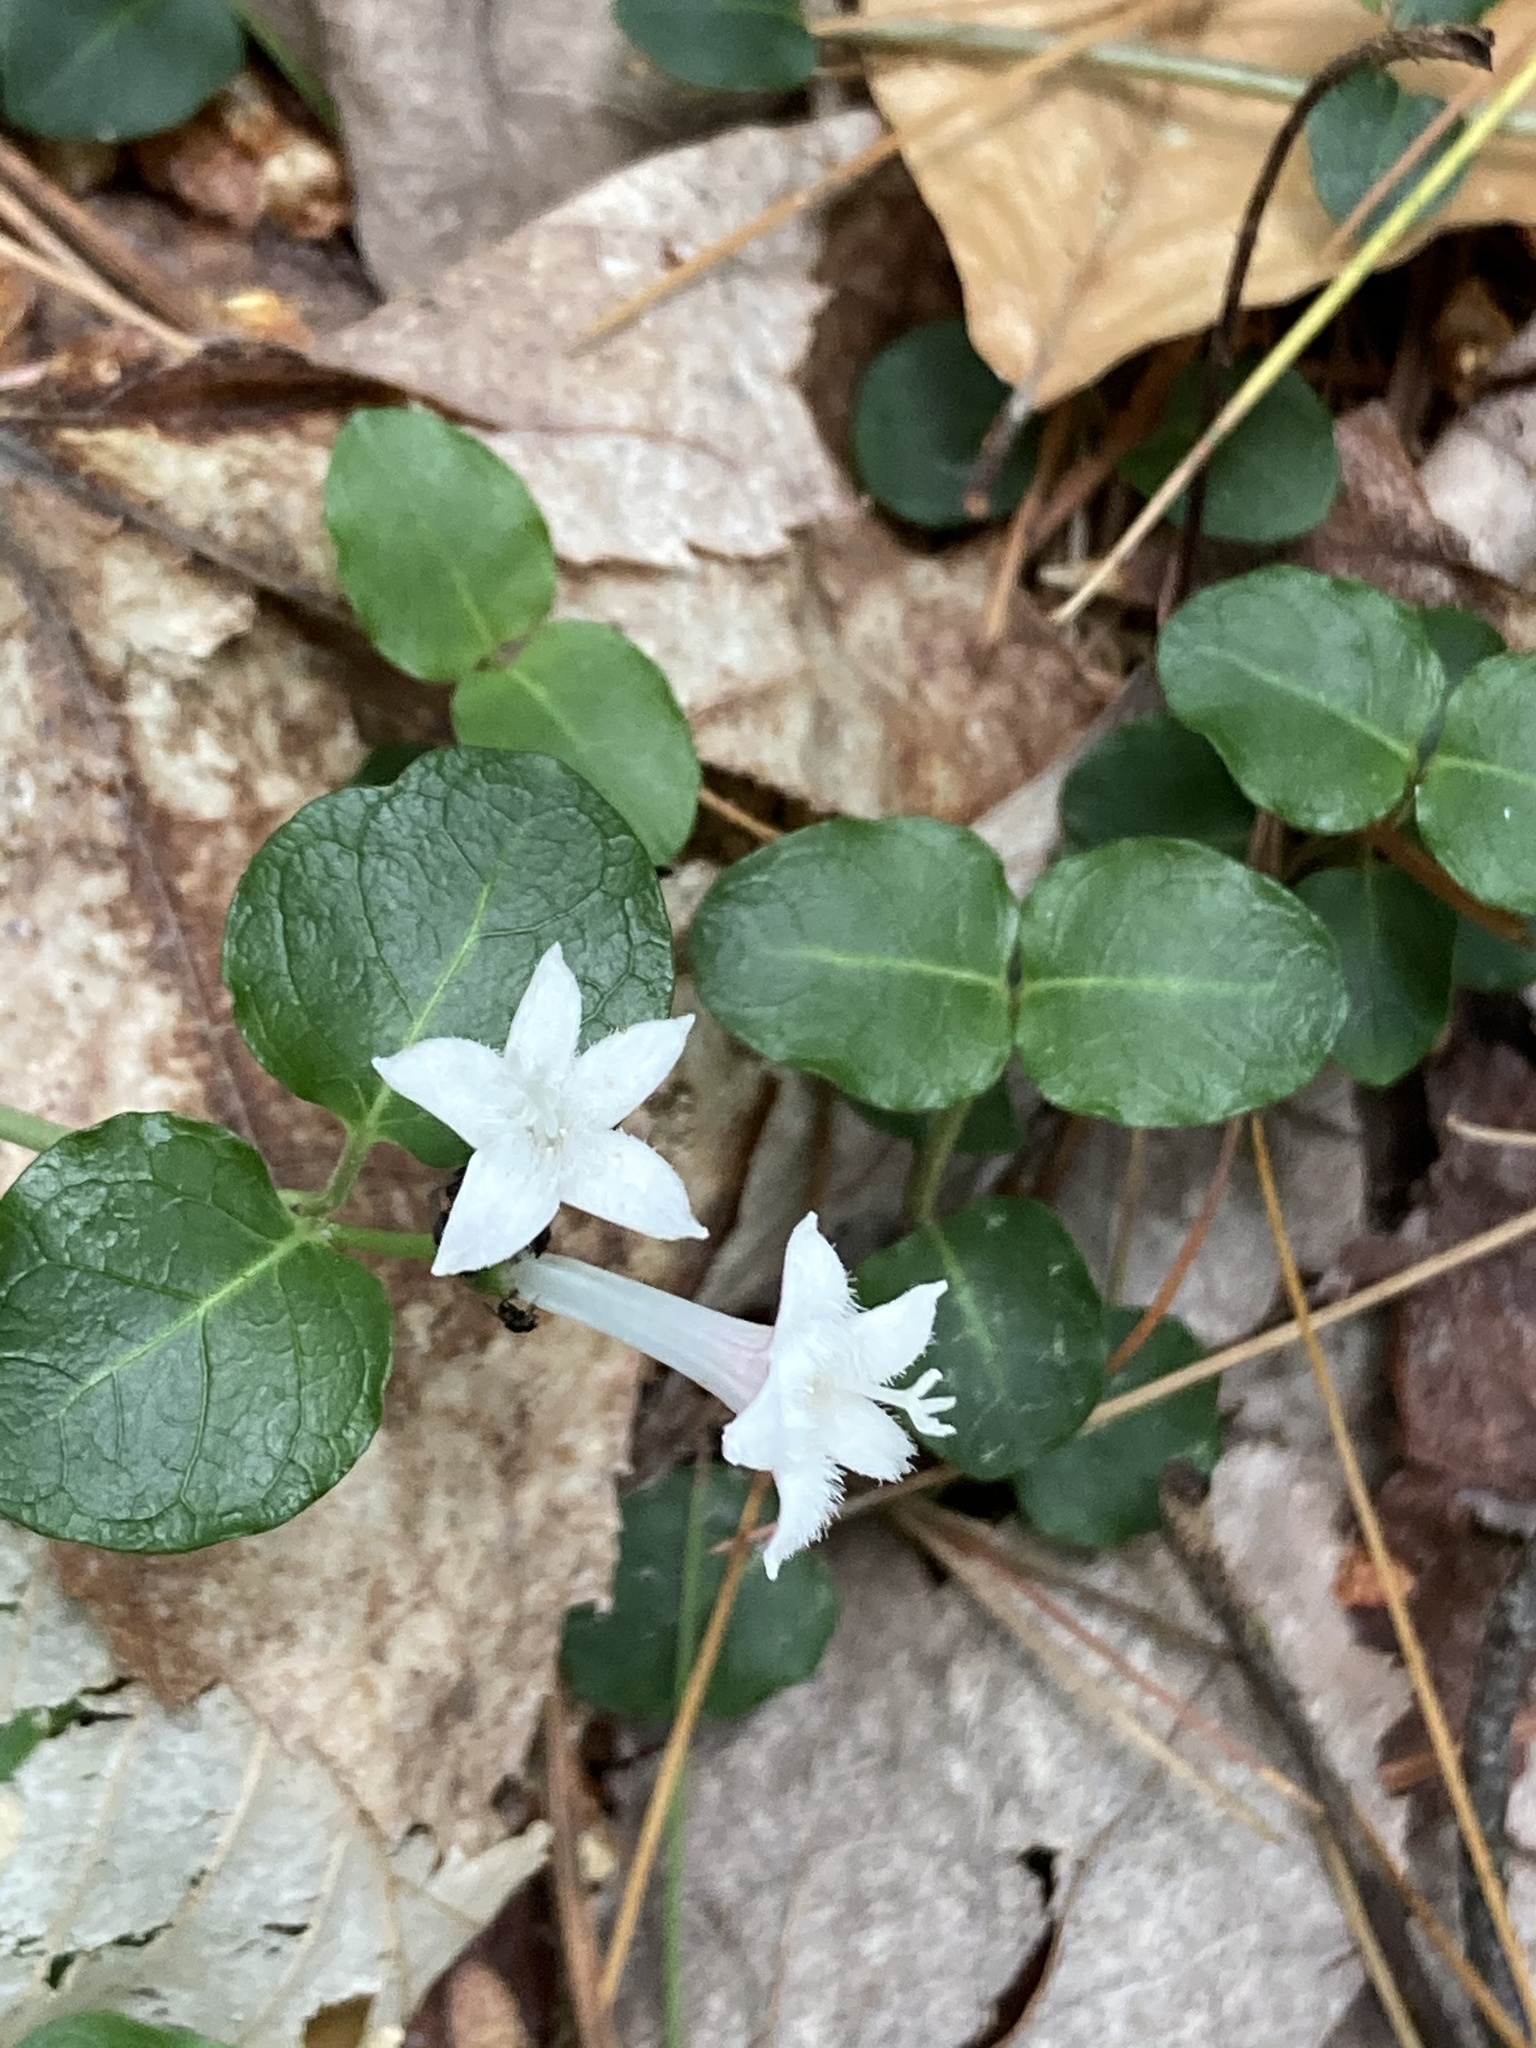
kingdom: Plantae
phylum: Tracheophyta
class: Magnoliopsida
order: Gentianales
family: Rubiaceae
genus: Mitchella
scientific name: Mitchella repens
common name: Partridge-berry
